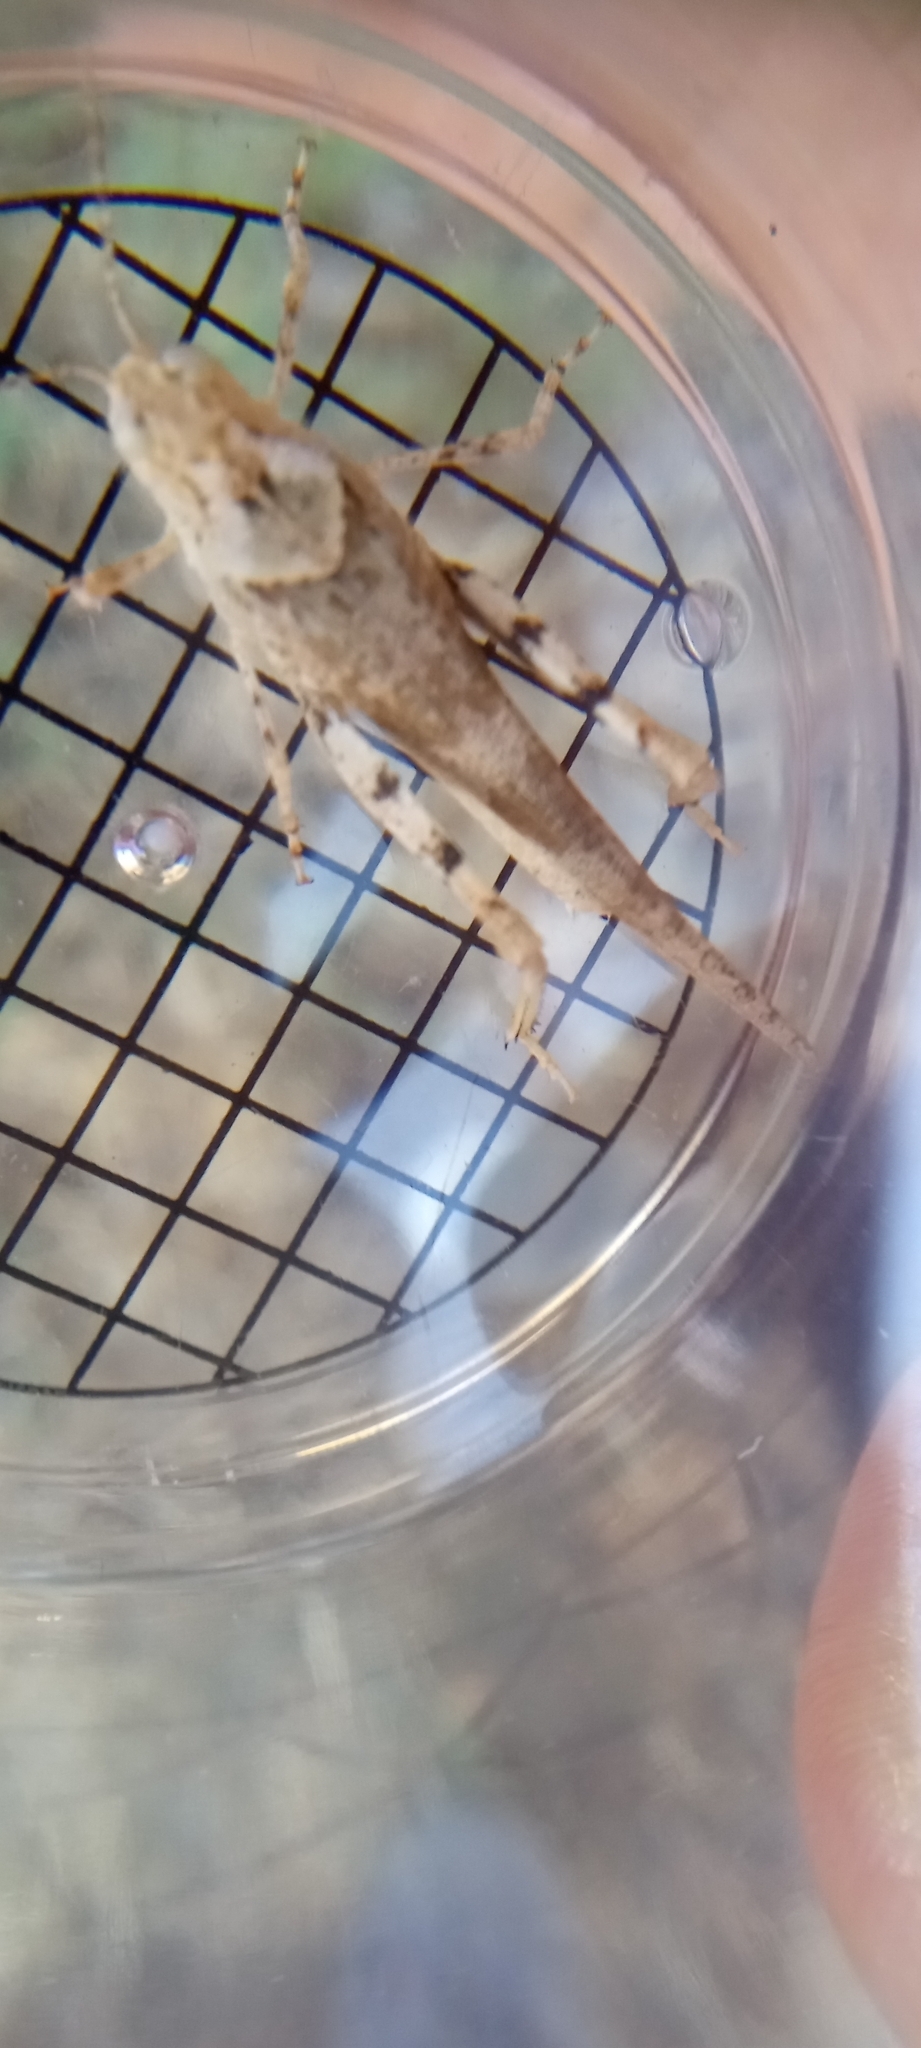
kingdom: Animalia
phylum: Arthropoda
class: Insecta
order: Orthoptera
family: Acrididae
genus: Trimerotropis
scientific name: Trimerotropis pallidipennis
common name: Pallid-winged grasshopper
